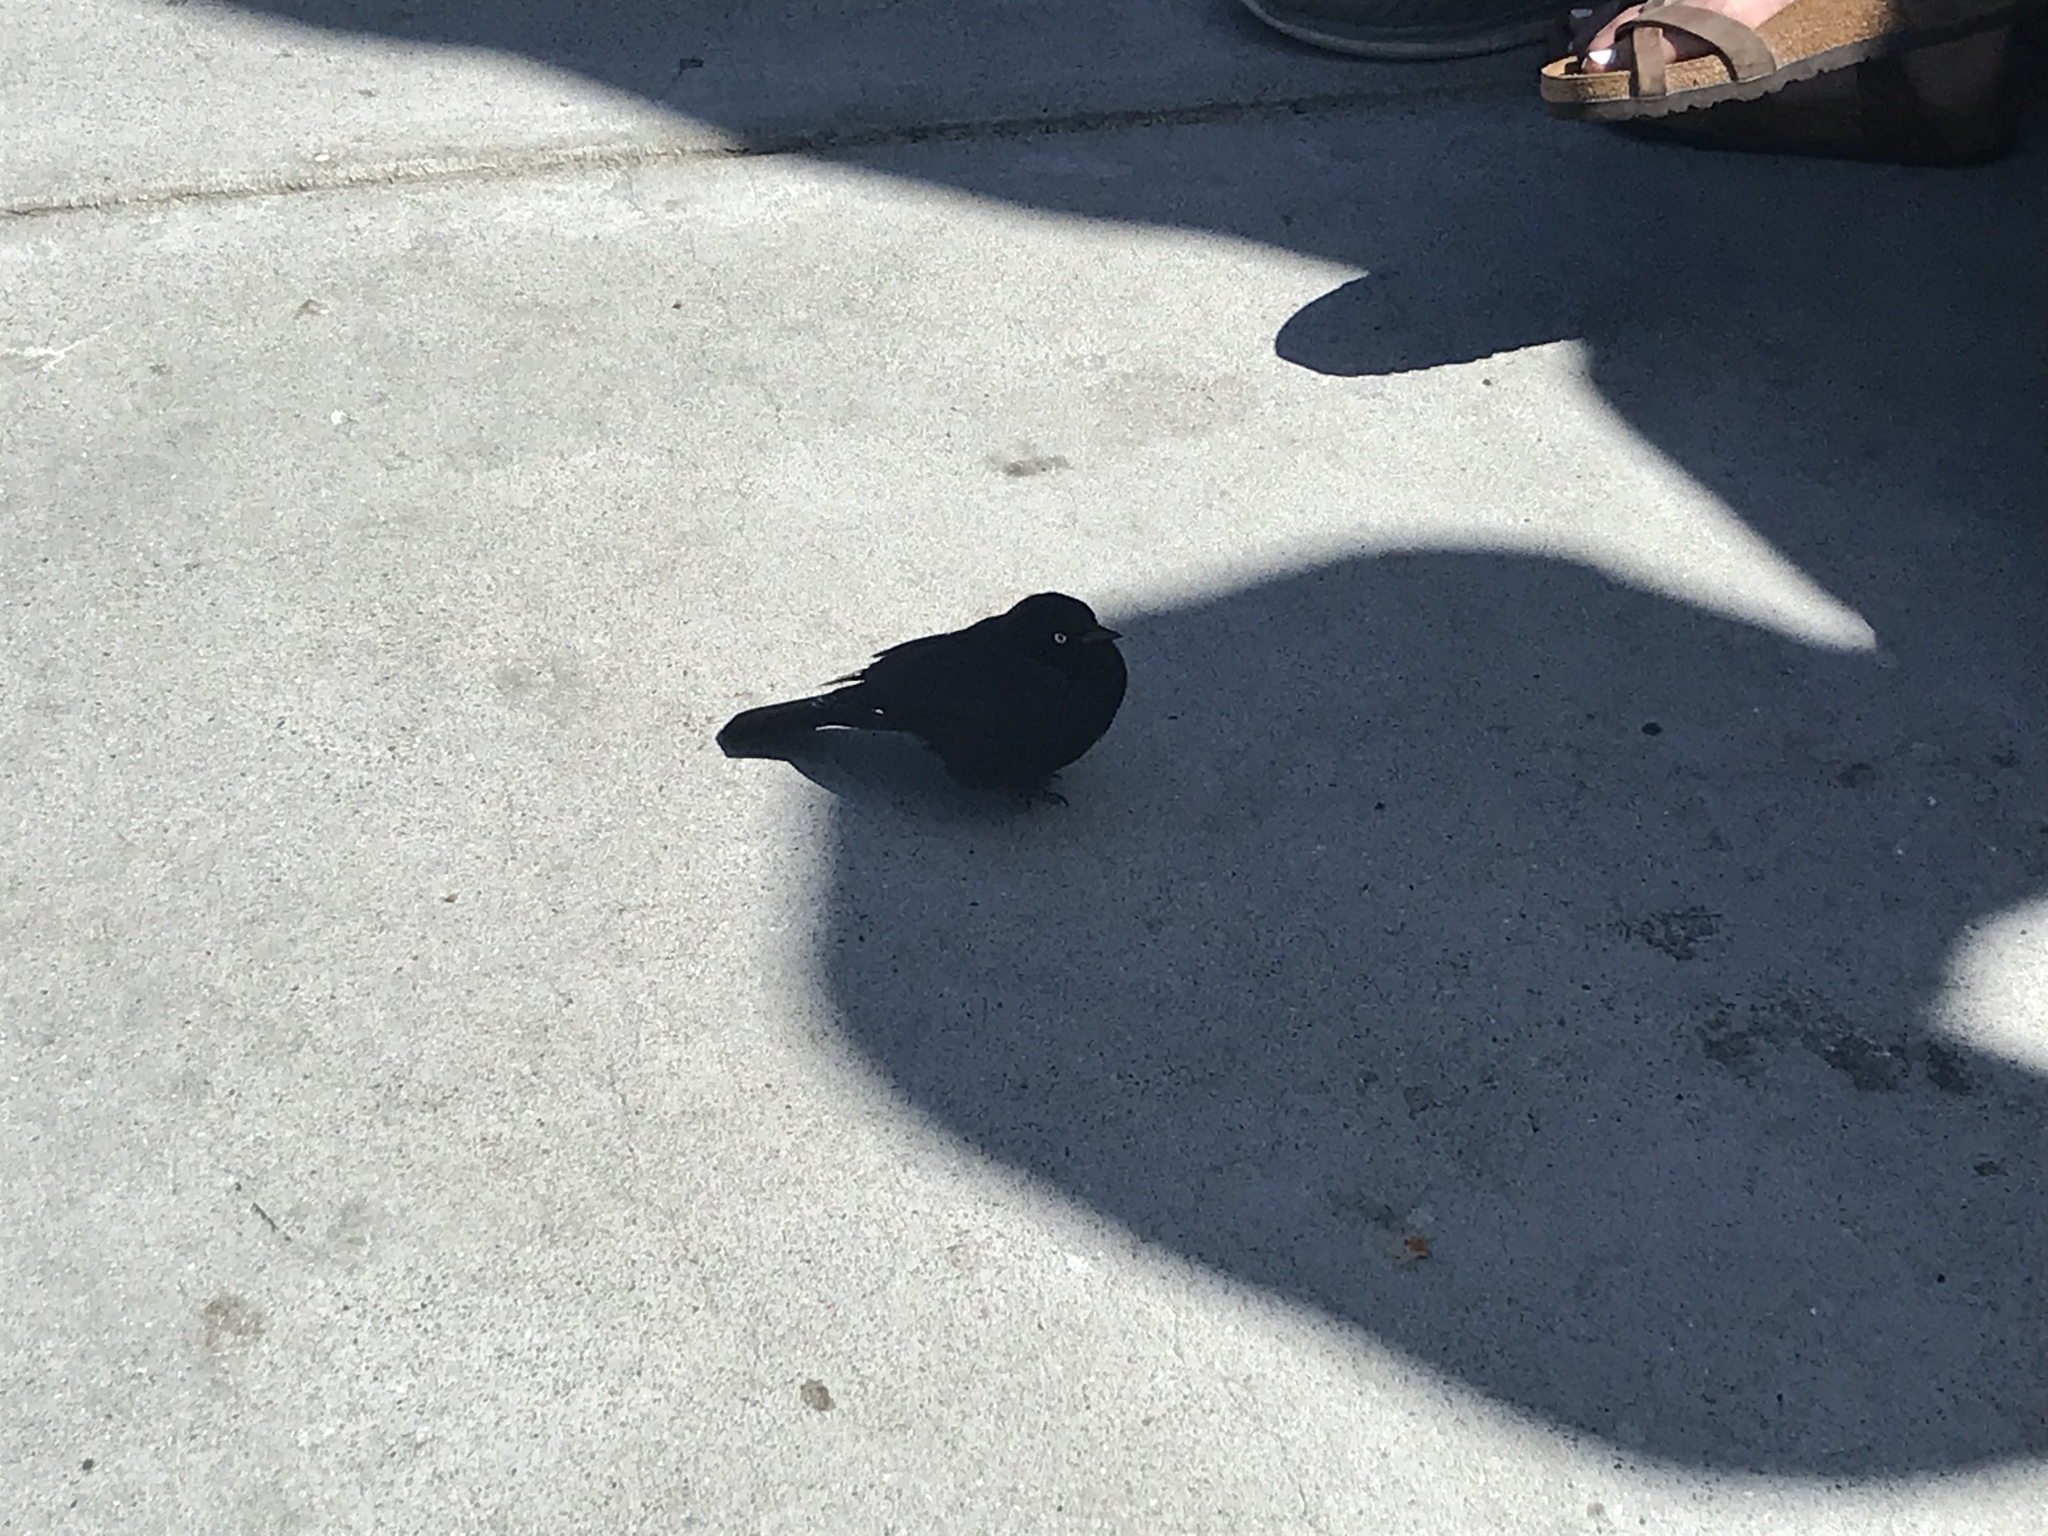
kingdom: Animalia
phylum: Chordata
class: Aves
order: Passeriformes
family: Icteridae
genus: Euphagus
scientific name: Euphagus cyanocephalus
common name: Brewer's blackbird
